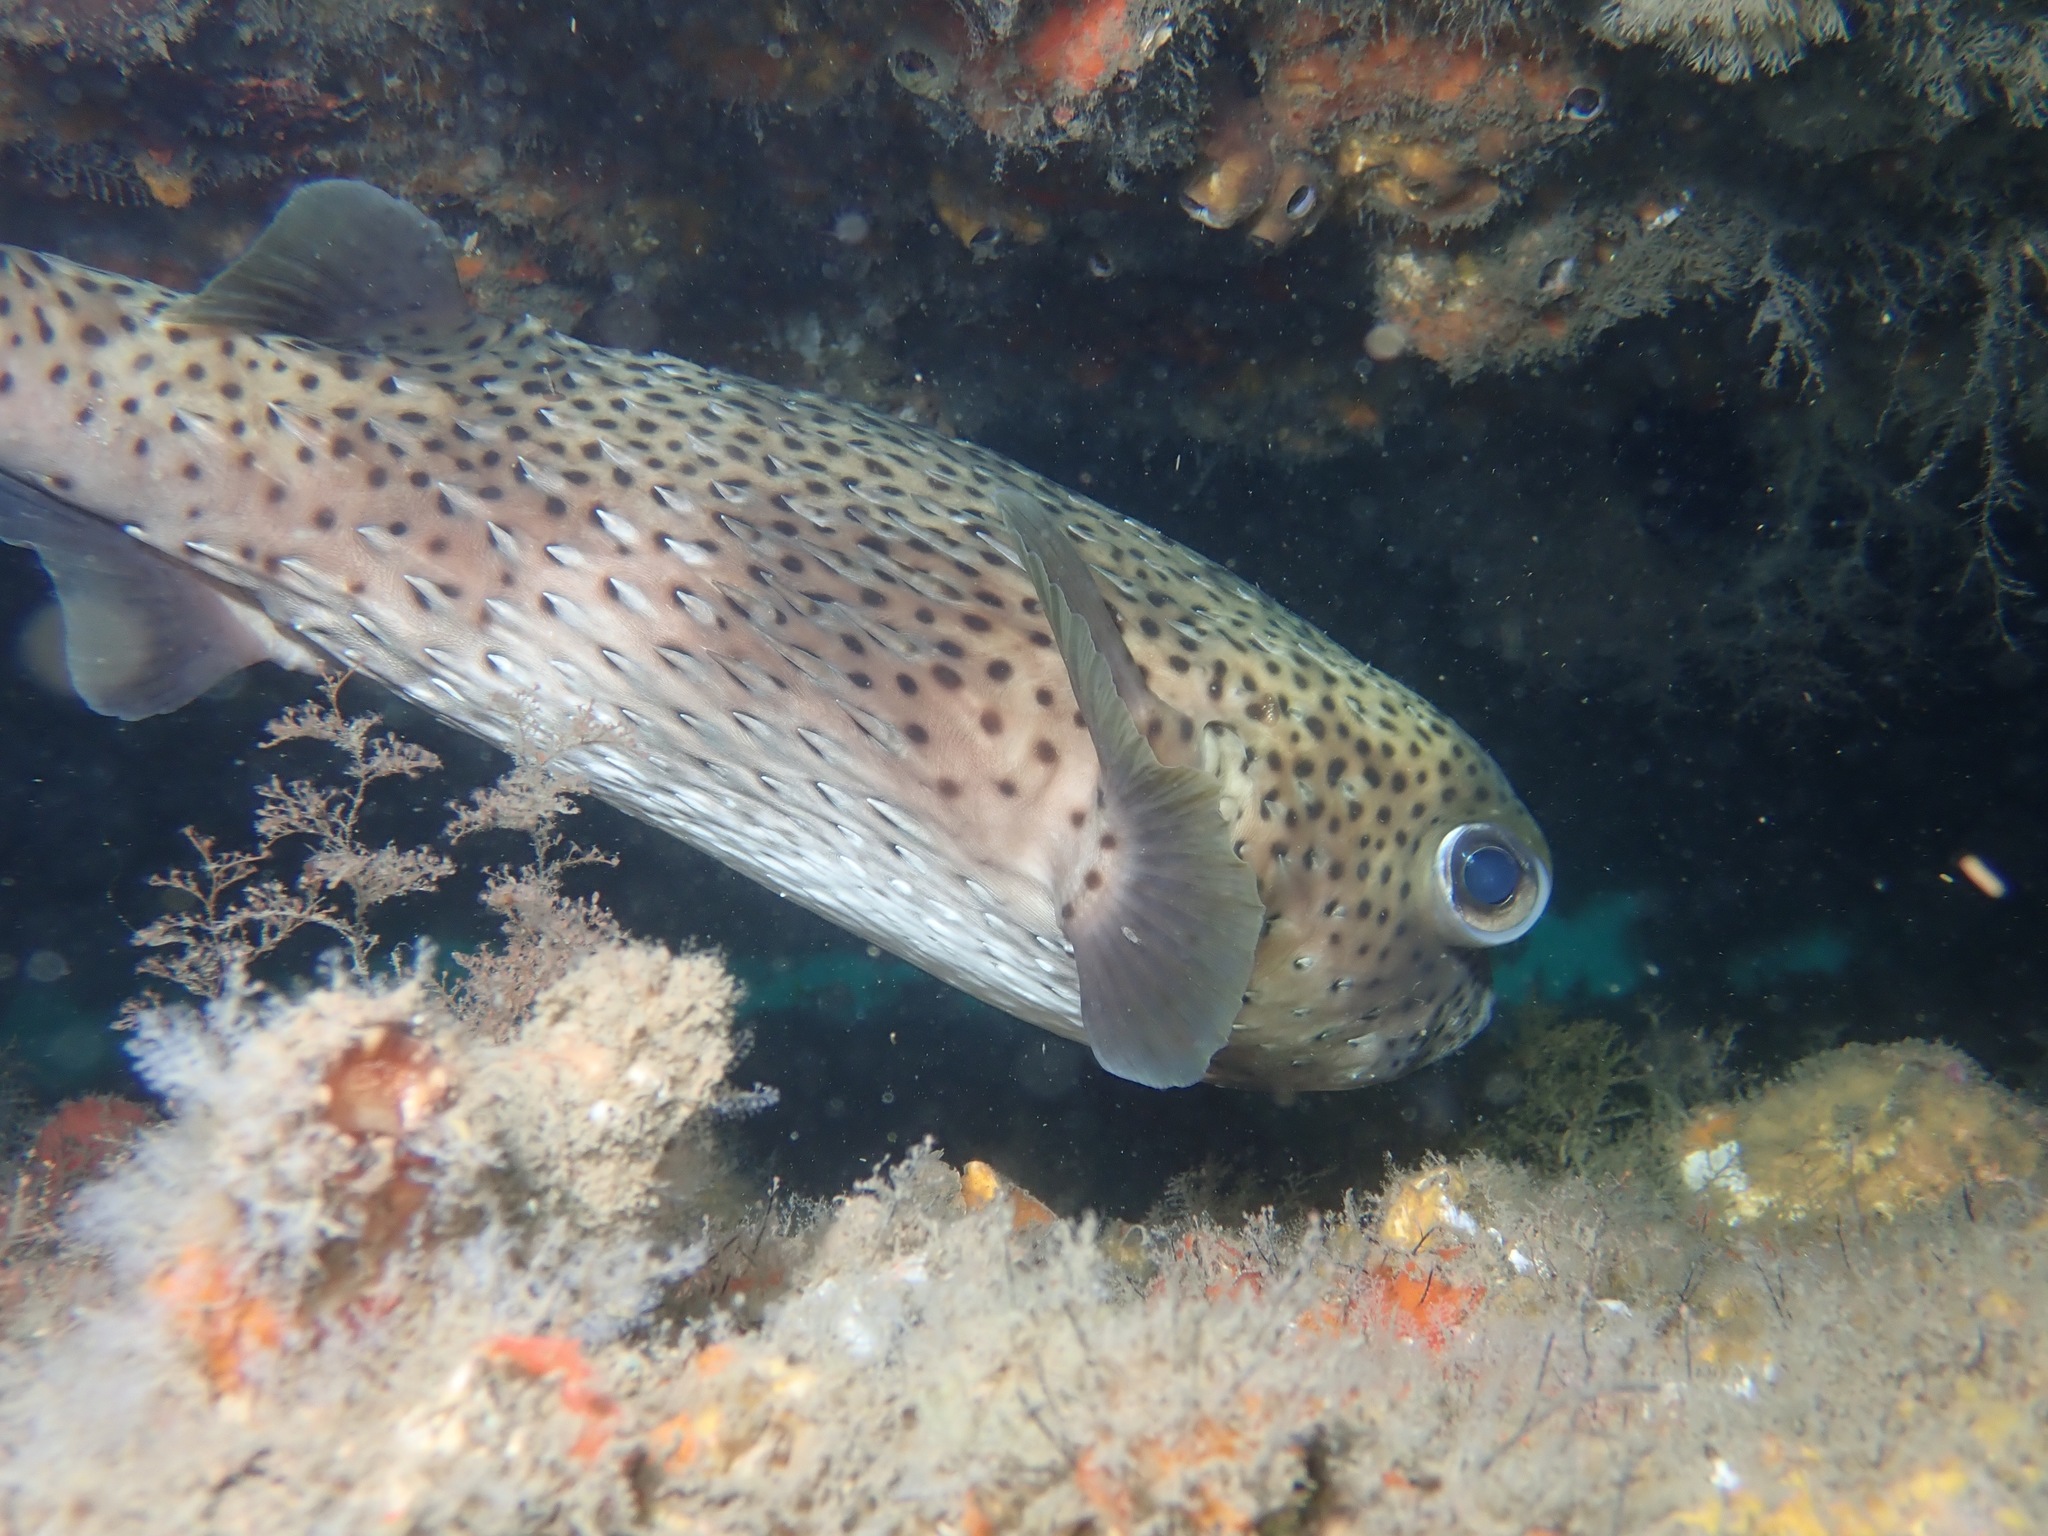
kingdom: Animalia
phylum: Chordata
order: Tetraodontiformes
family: Diodontidae
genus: Diodon
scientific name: Diodon hystrix
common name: Giant porcupinefish
